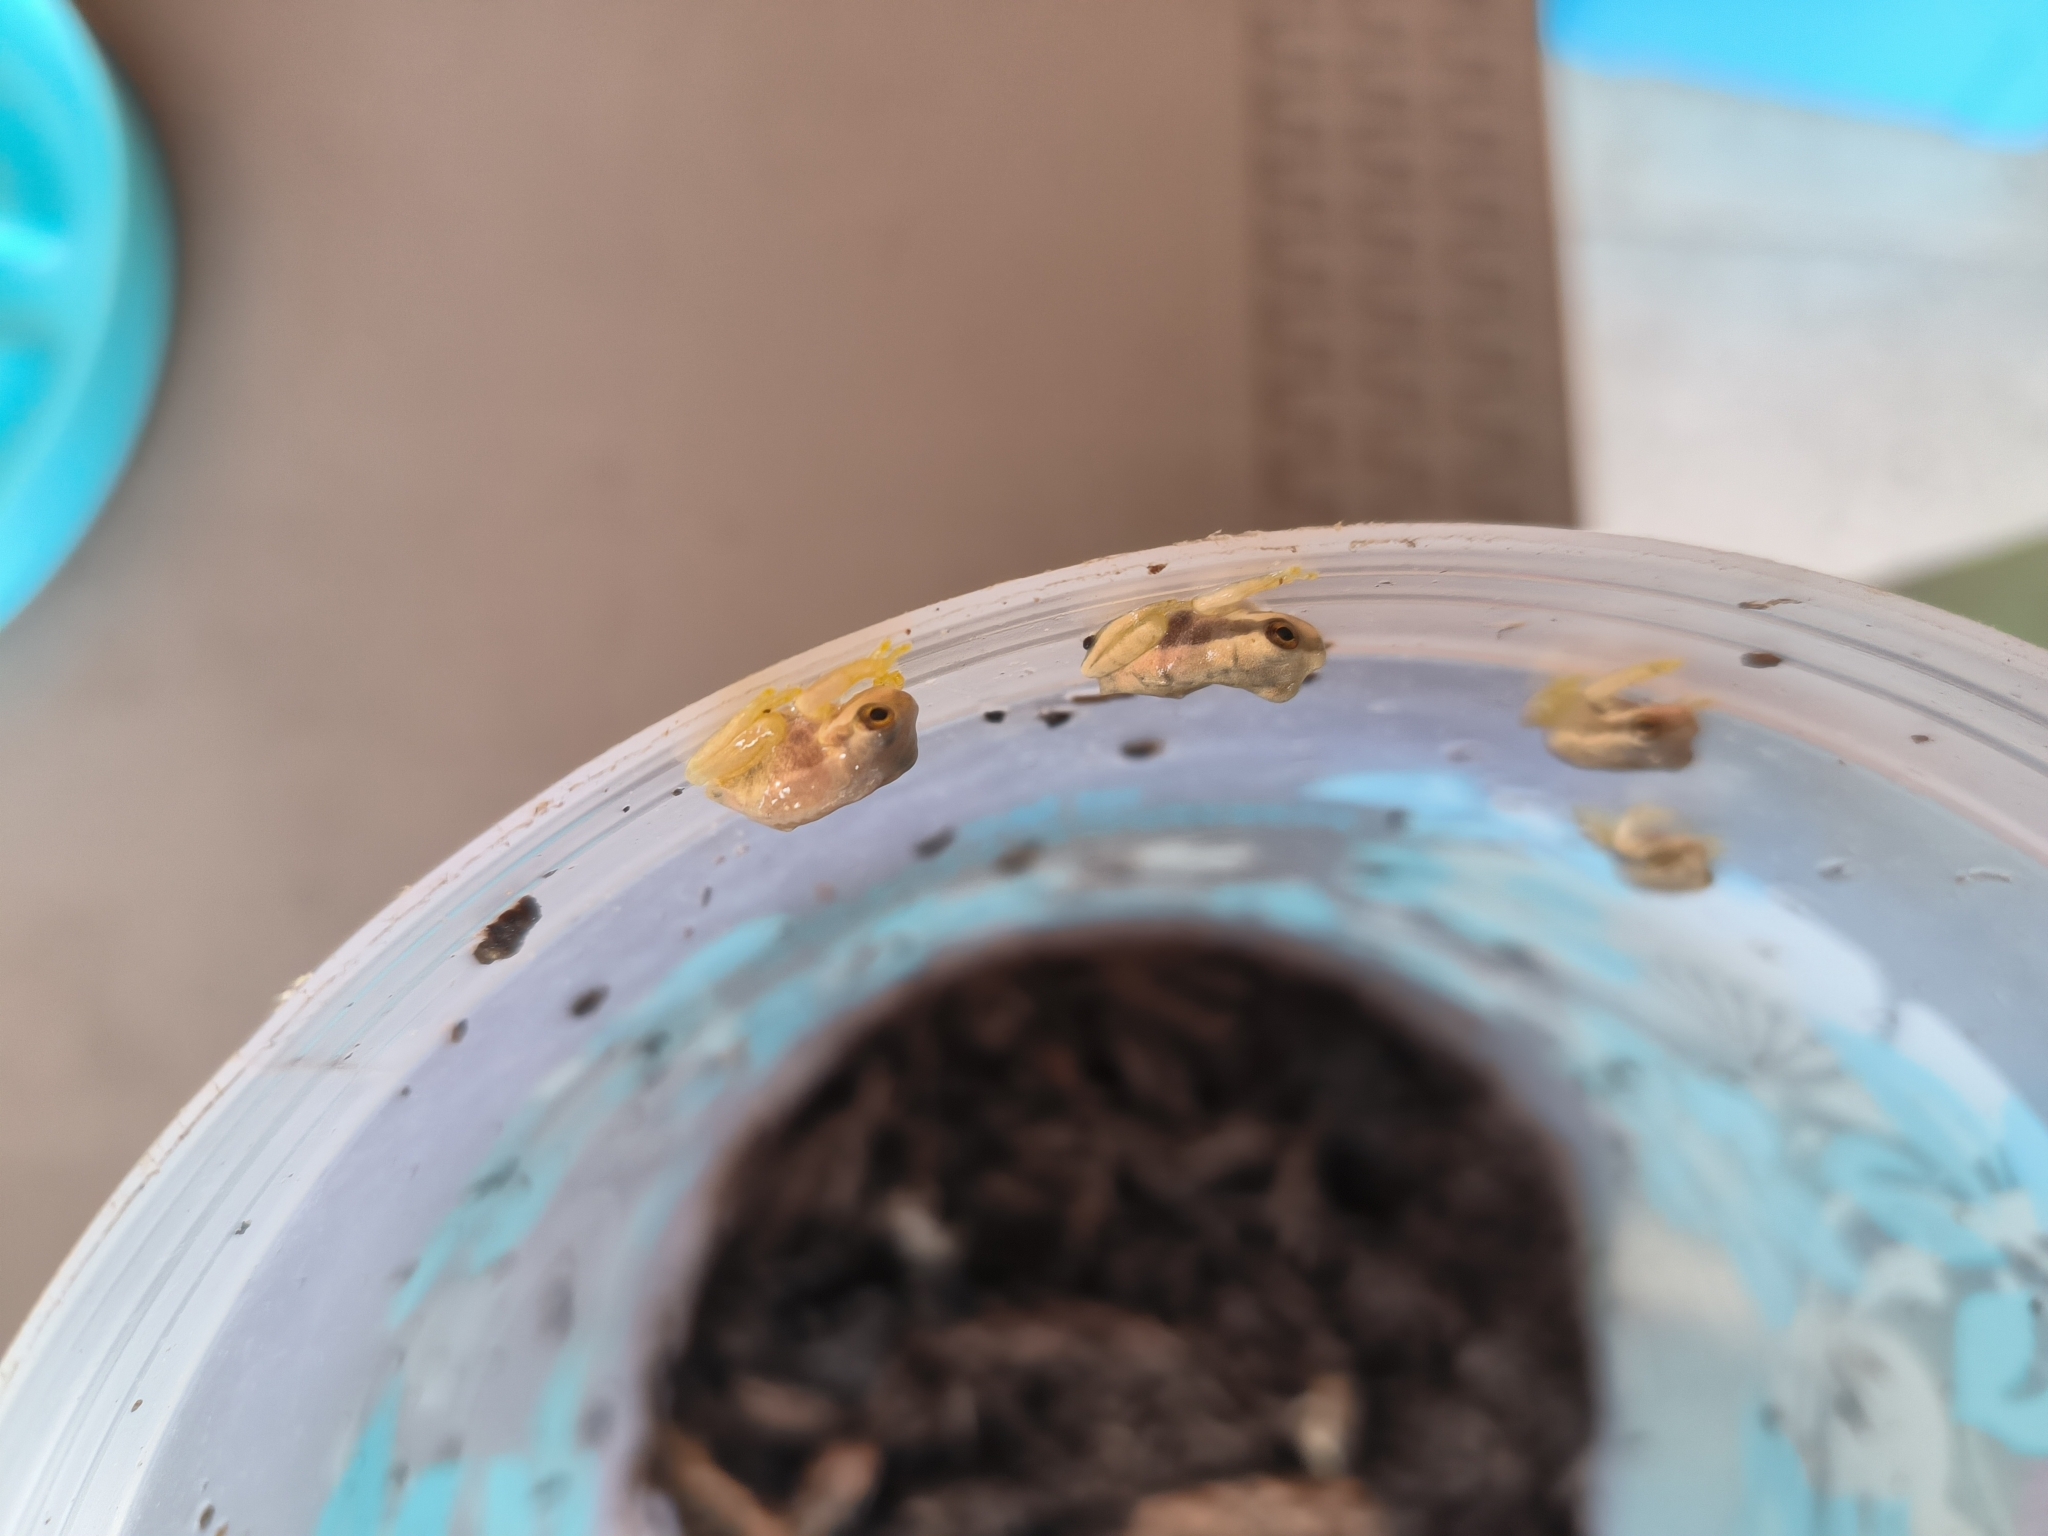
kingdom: Animalia
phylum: Chordata
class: Amphibia
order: Anura
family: Hylidae
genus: Smilisca
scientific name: Smilisca phaeota
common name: Central american smilisca
